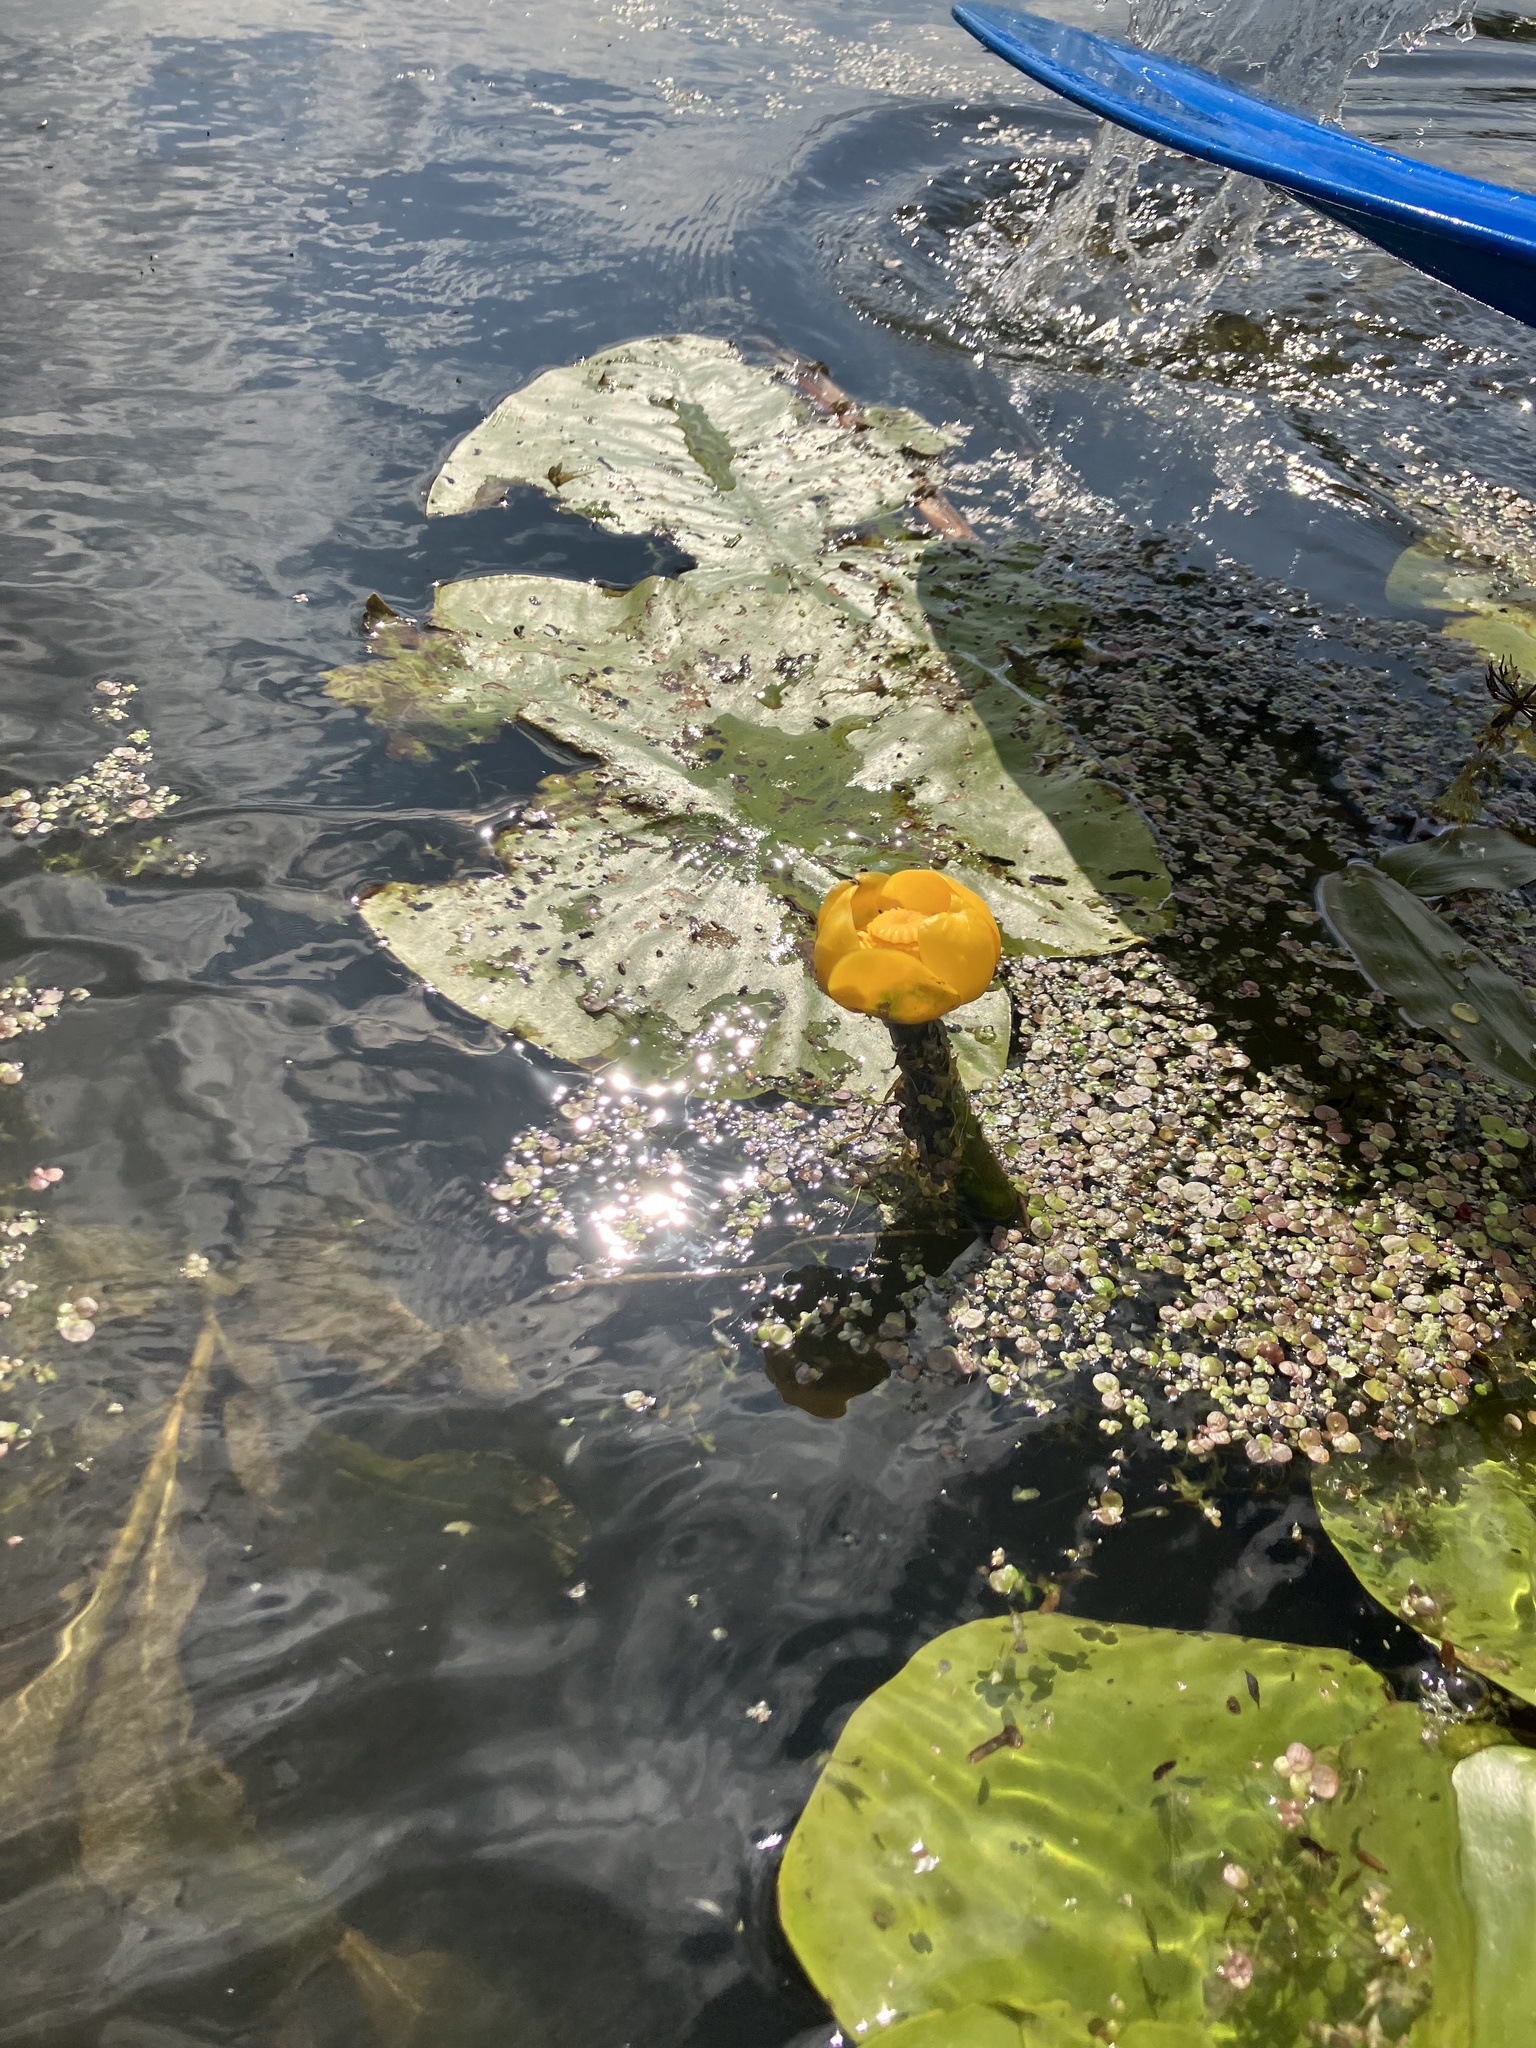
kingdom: Plantae
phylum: Tracheophyta
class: Magnoliopsida
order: Nymphaeales
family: Nymphaeaceae
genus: Nuphar
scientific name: Nuphar lutea
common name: Yellow water-lily
